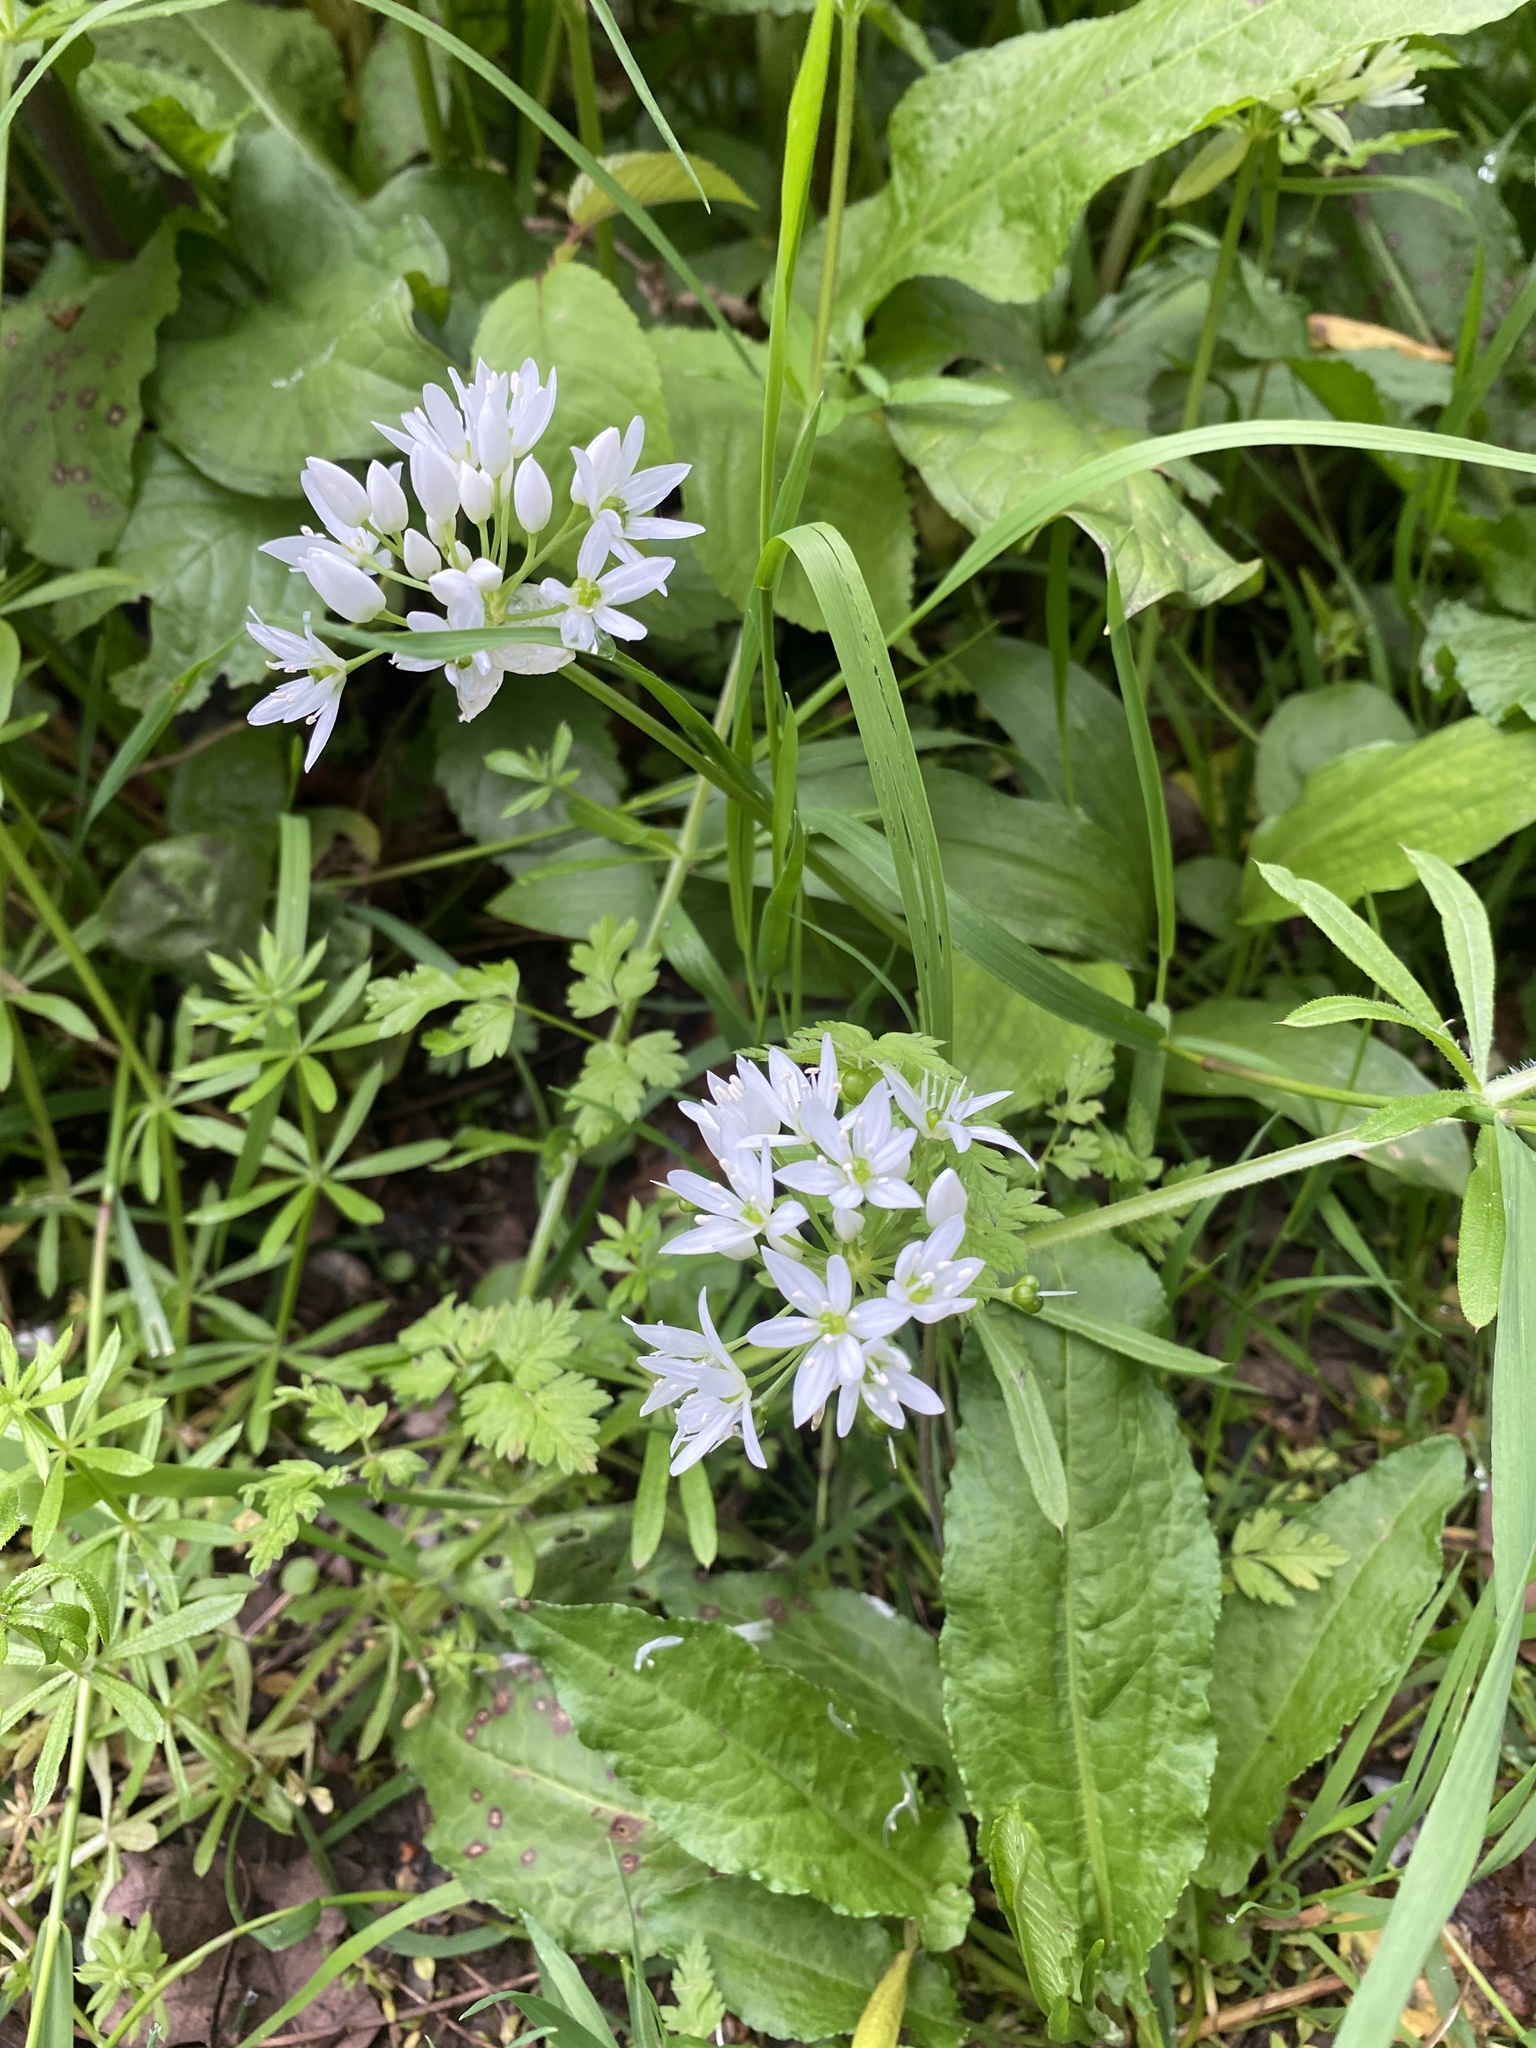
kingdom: Plantae
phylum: Tracheophyta
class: Liliopsida
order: Asparagales
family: Amaryllidaceae
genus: Allium
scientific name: Allium ursinum
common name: Ramsons
